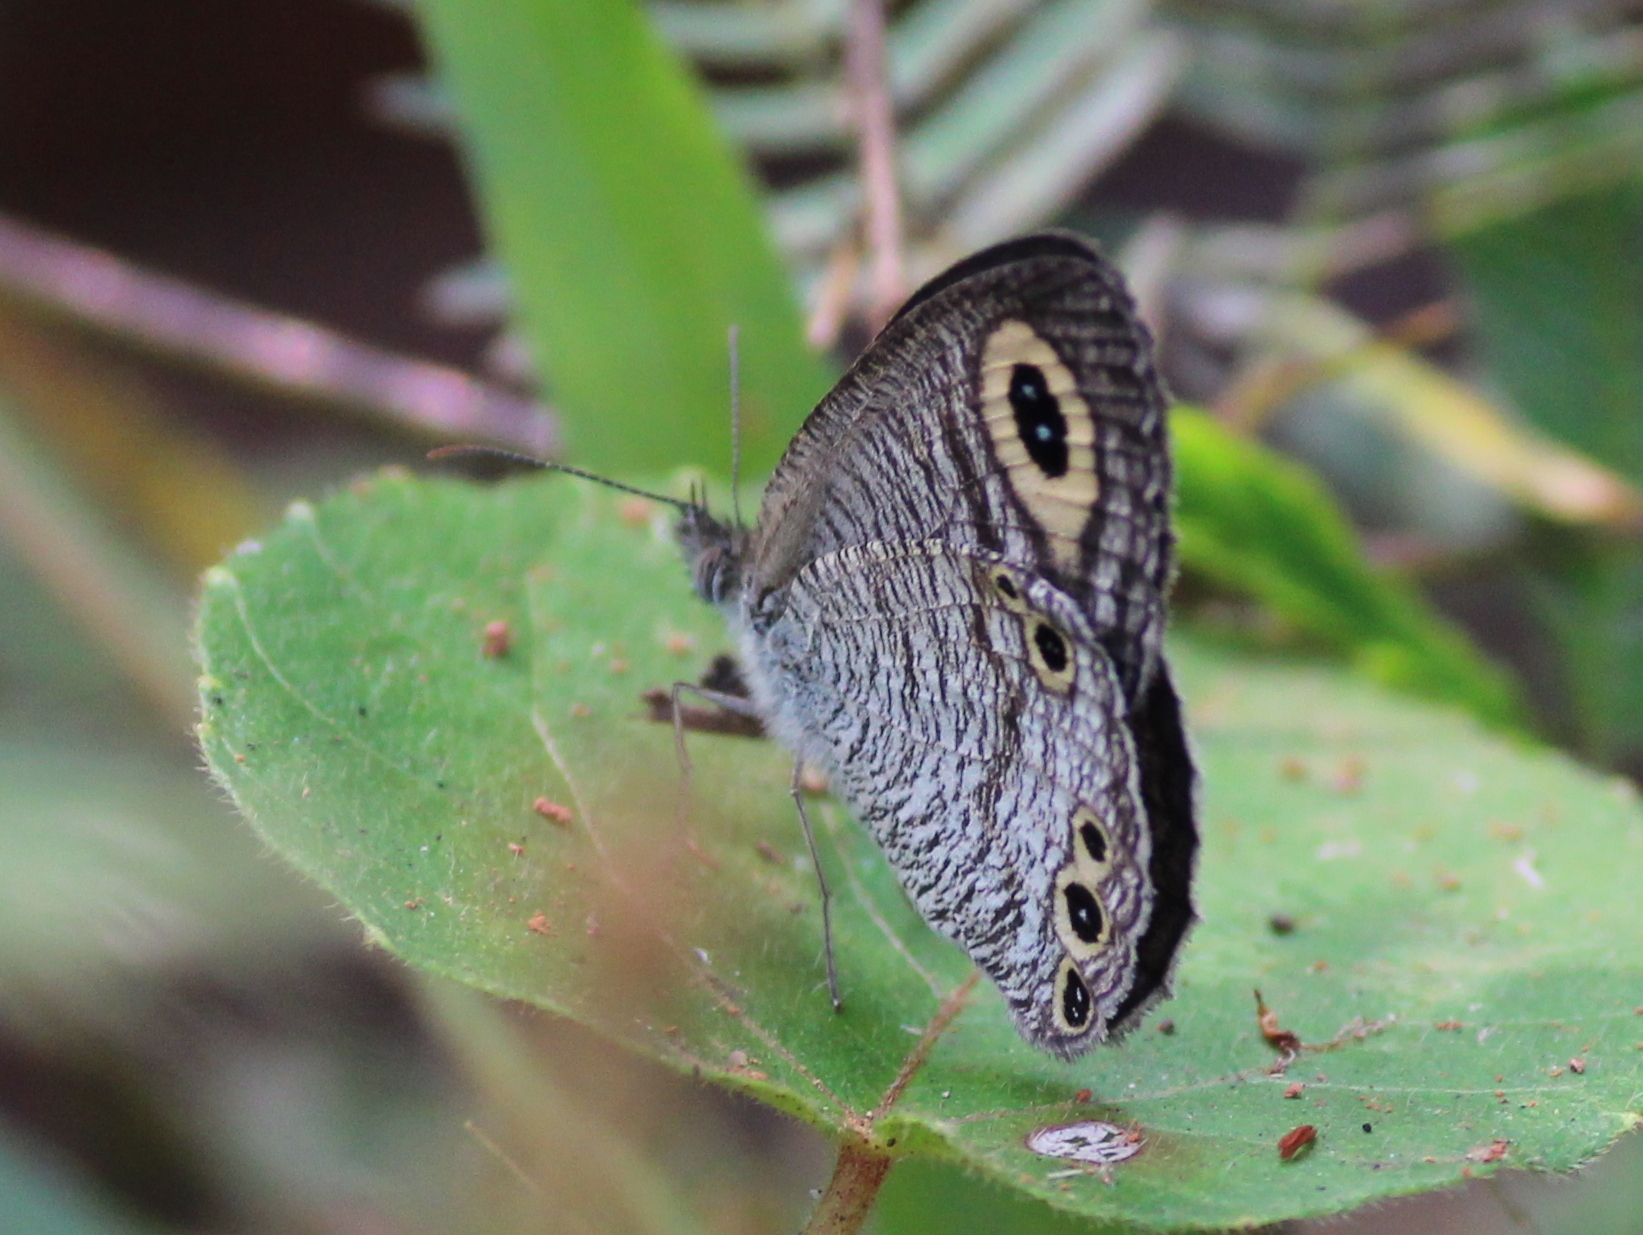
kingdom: Animalia
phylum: Arthropoda
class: Insecta
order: Lepidoptera
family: Nymphalidae
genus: Ypthima
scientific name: Ypthima huebneri
